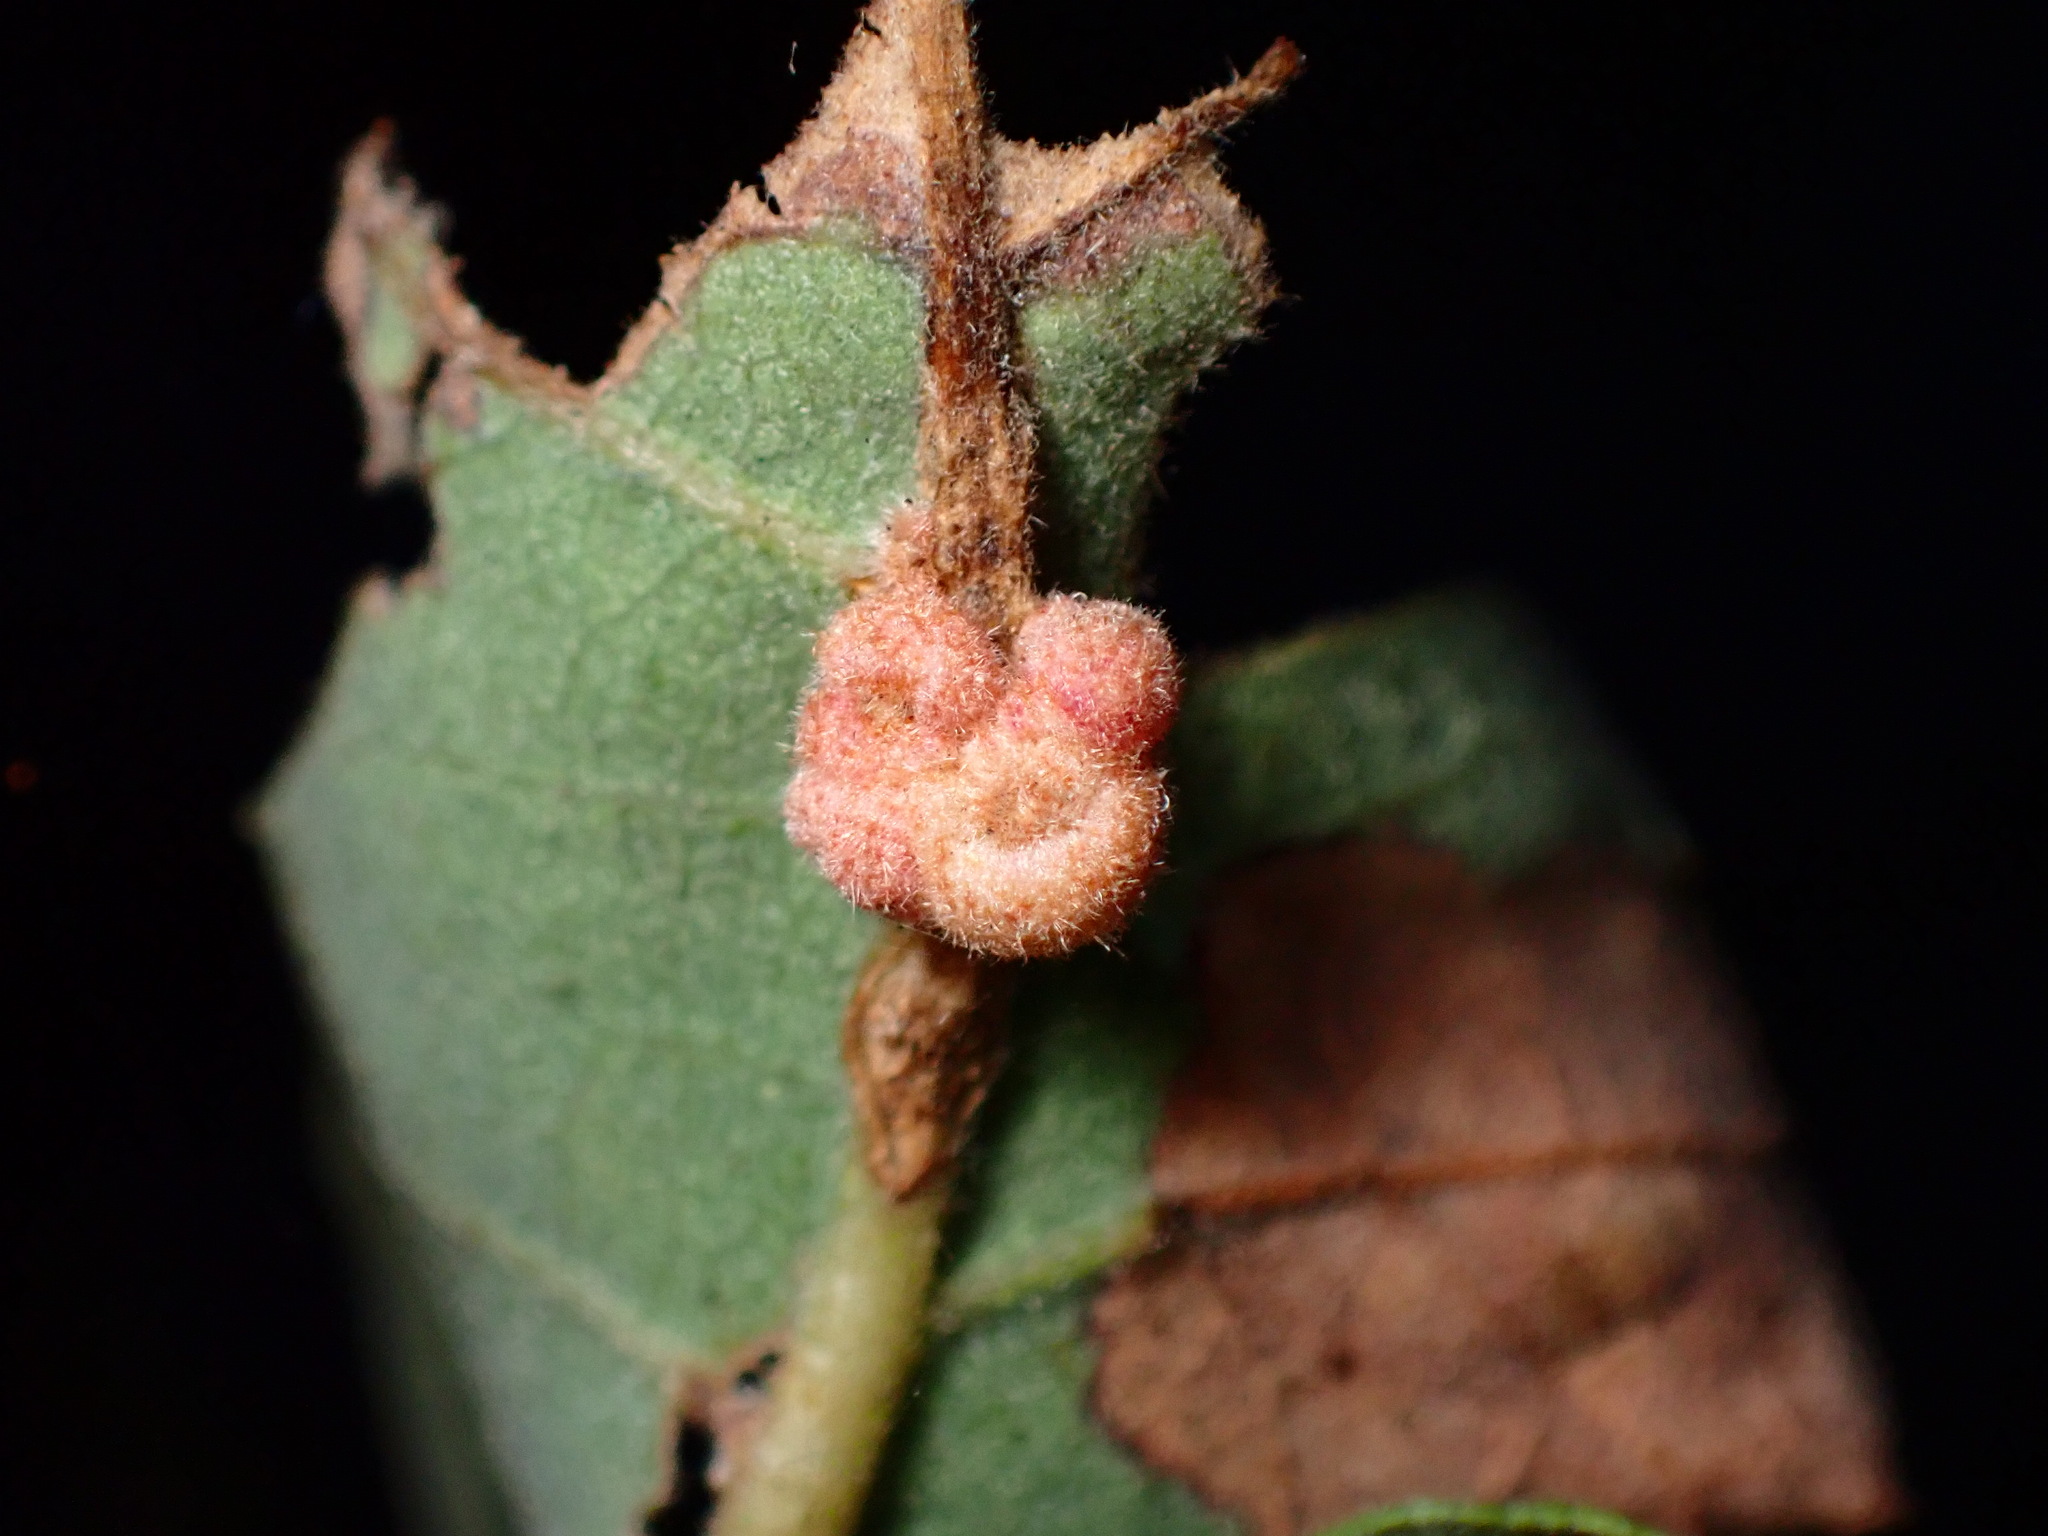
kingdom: Animalia
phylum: Arthropoda
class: Insecta
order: Hymenoptera
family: Cynipidae
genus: Andricus
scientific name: Andricus
